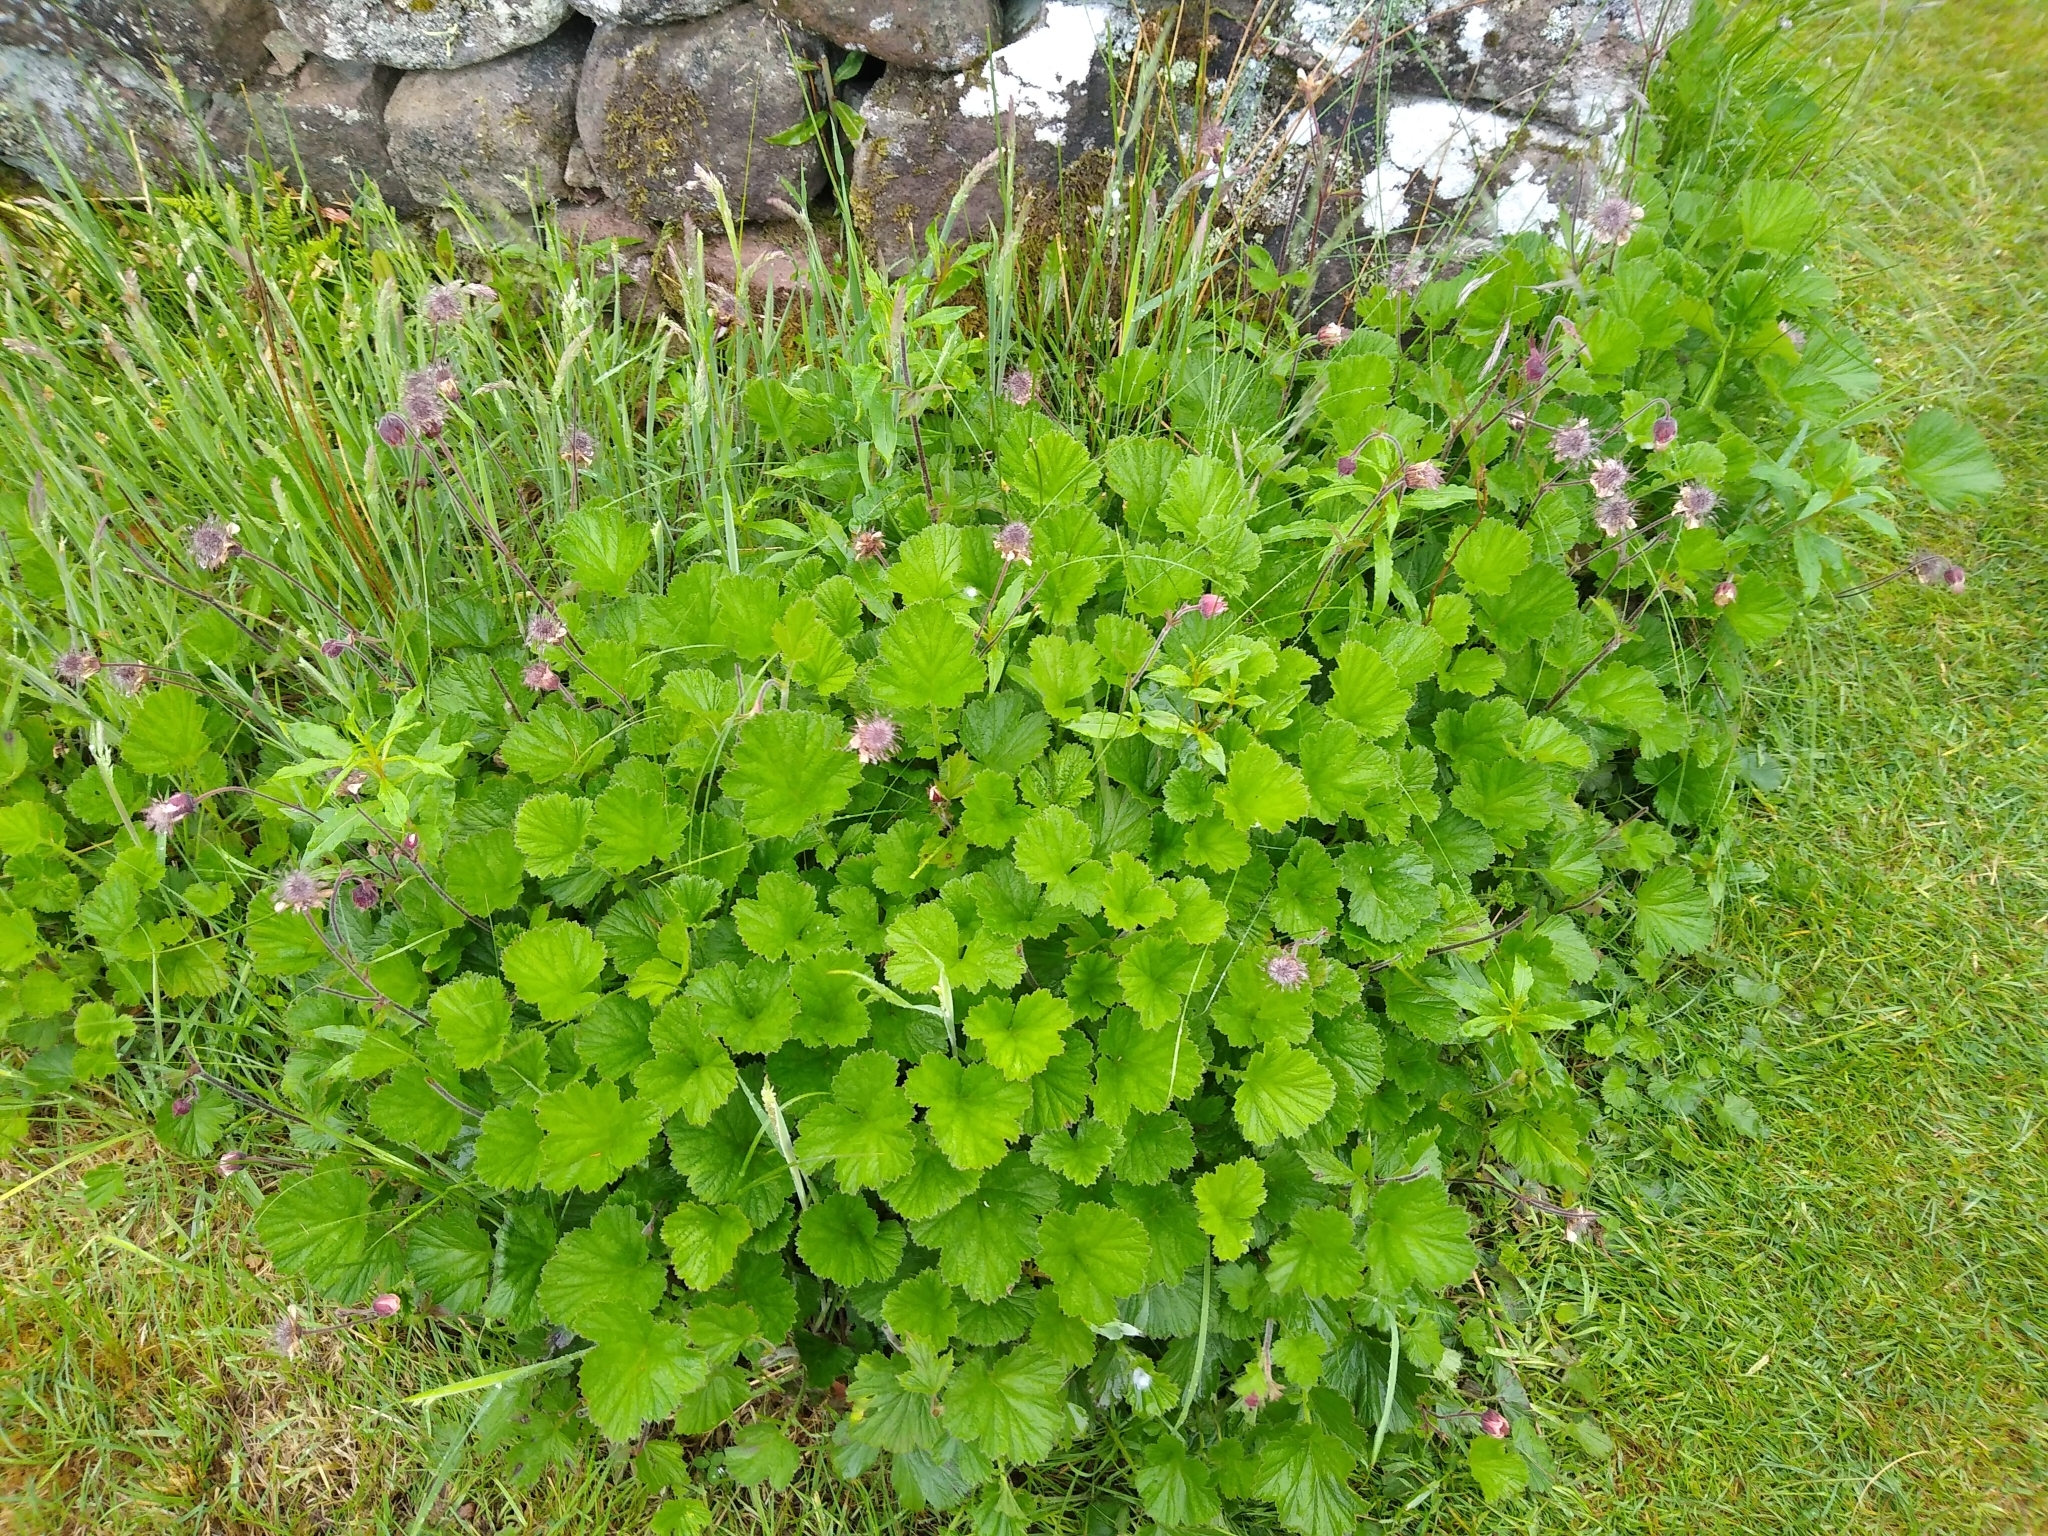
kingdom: Plantae
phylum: Tracheophyta
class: Magnoliopsida
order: Rosales
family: Rosaceae
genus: Geum
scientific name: Geum rivale
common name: Water avens
